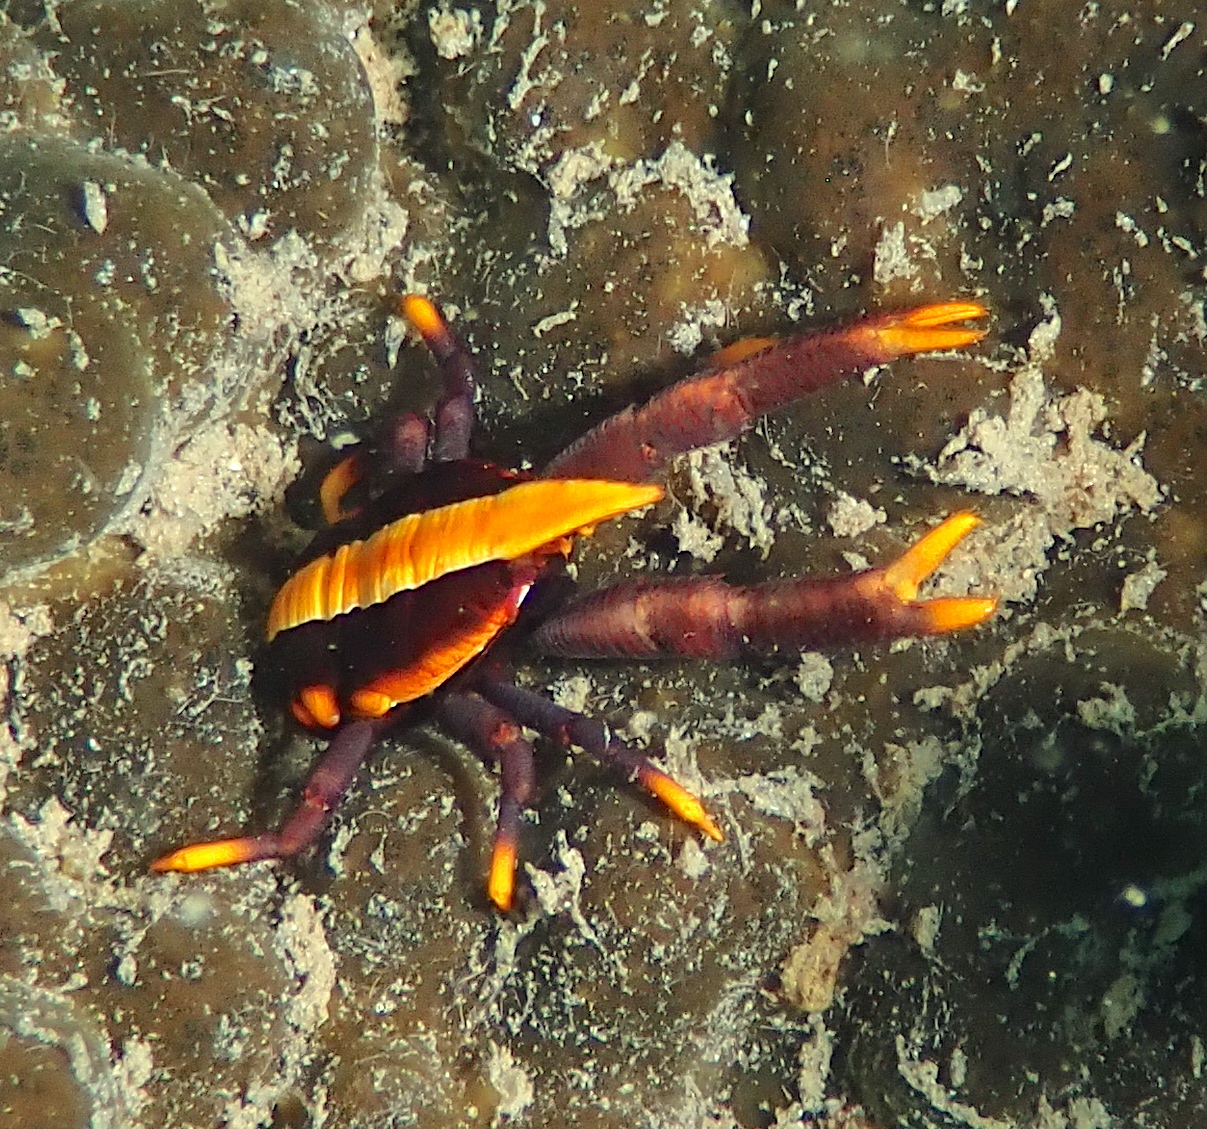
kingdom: Animalia
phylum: Arthropoda
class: Malacostraca
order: Decapoda
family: Galatheidae
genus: Allogalathea
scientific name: Allogalathea babai
